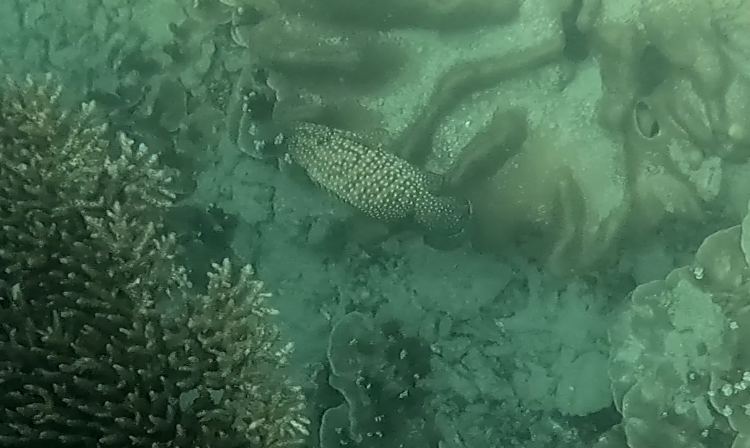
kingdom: Animalia
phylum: Chordata
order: Perciformes
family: Serranidae
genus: Cephalopholis
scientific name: Cephalopholis cyanostigma
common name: Bluespotted hind
